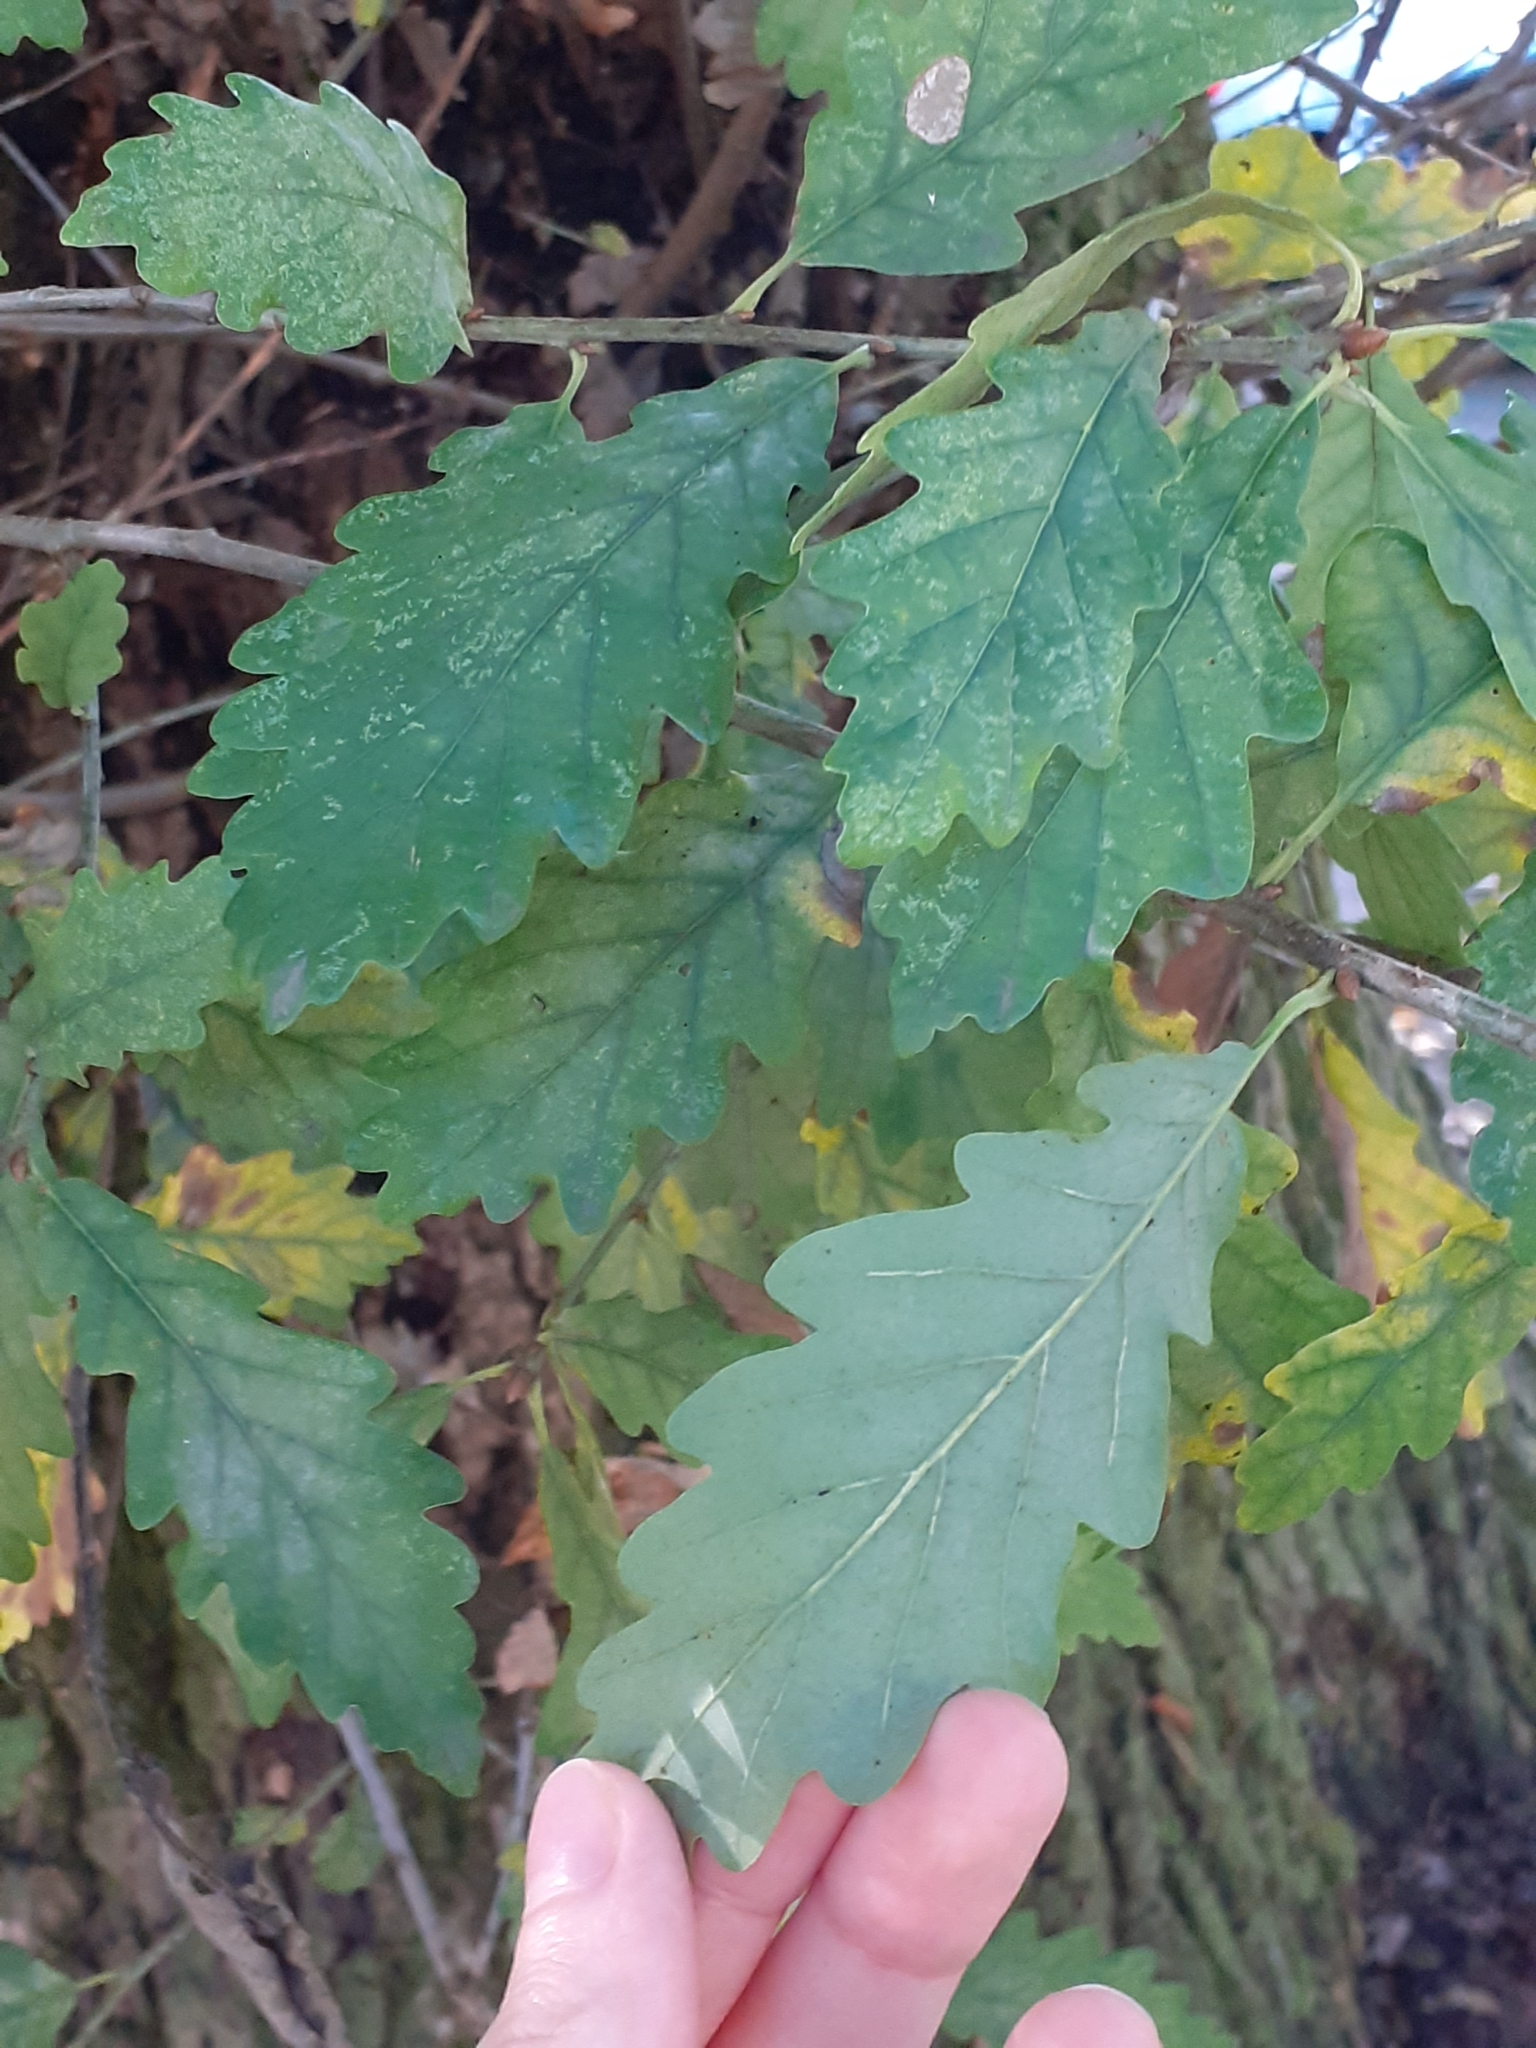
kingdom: Plantae
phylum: Tracheophyta
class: Magnoliopsida
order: Fagales
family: Fagaceae
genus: Quercus
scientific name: Quercus petraea
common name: Sessile oak
